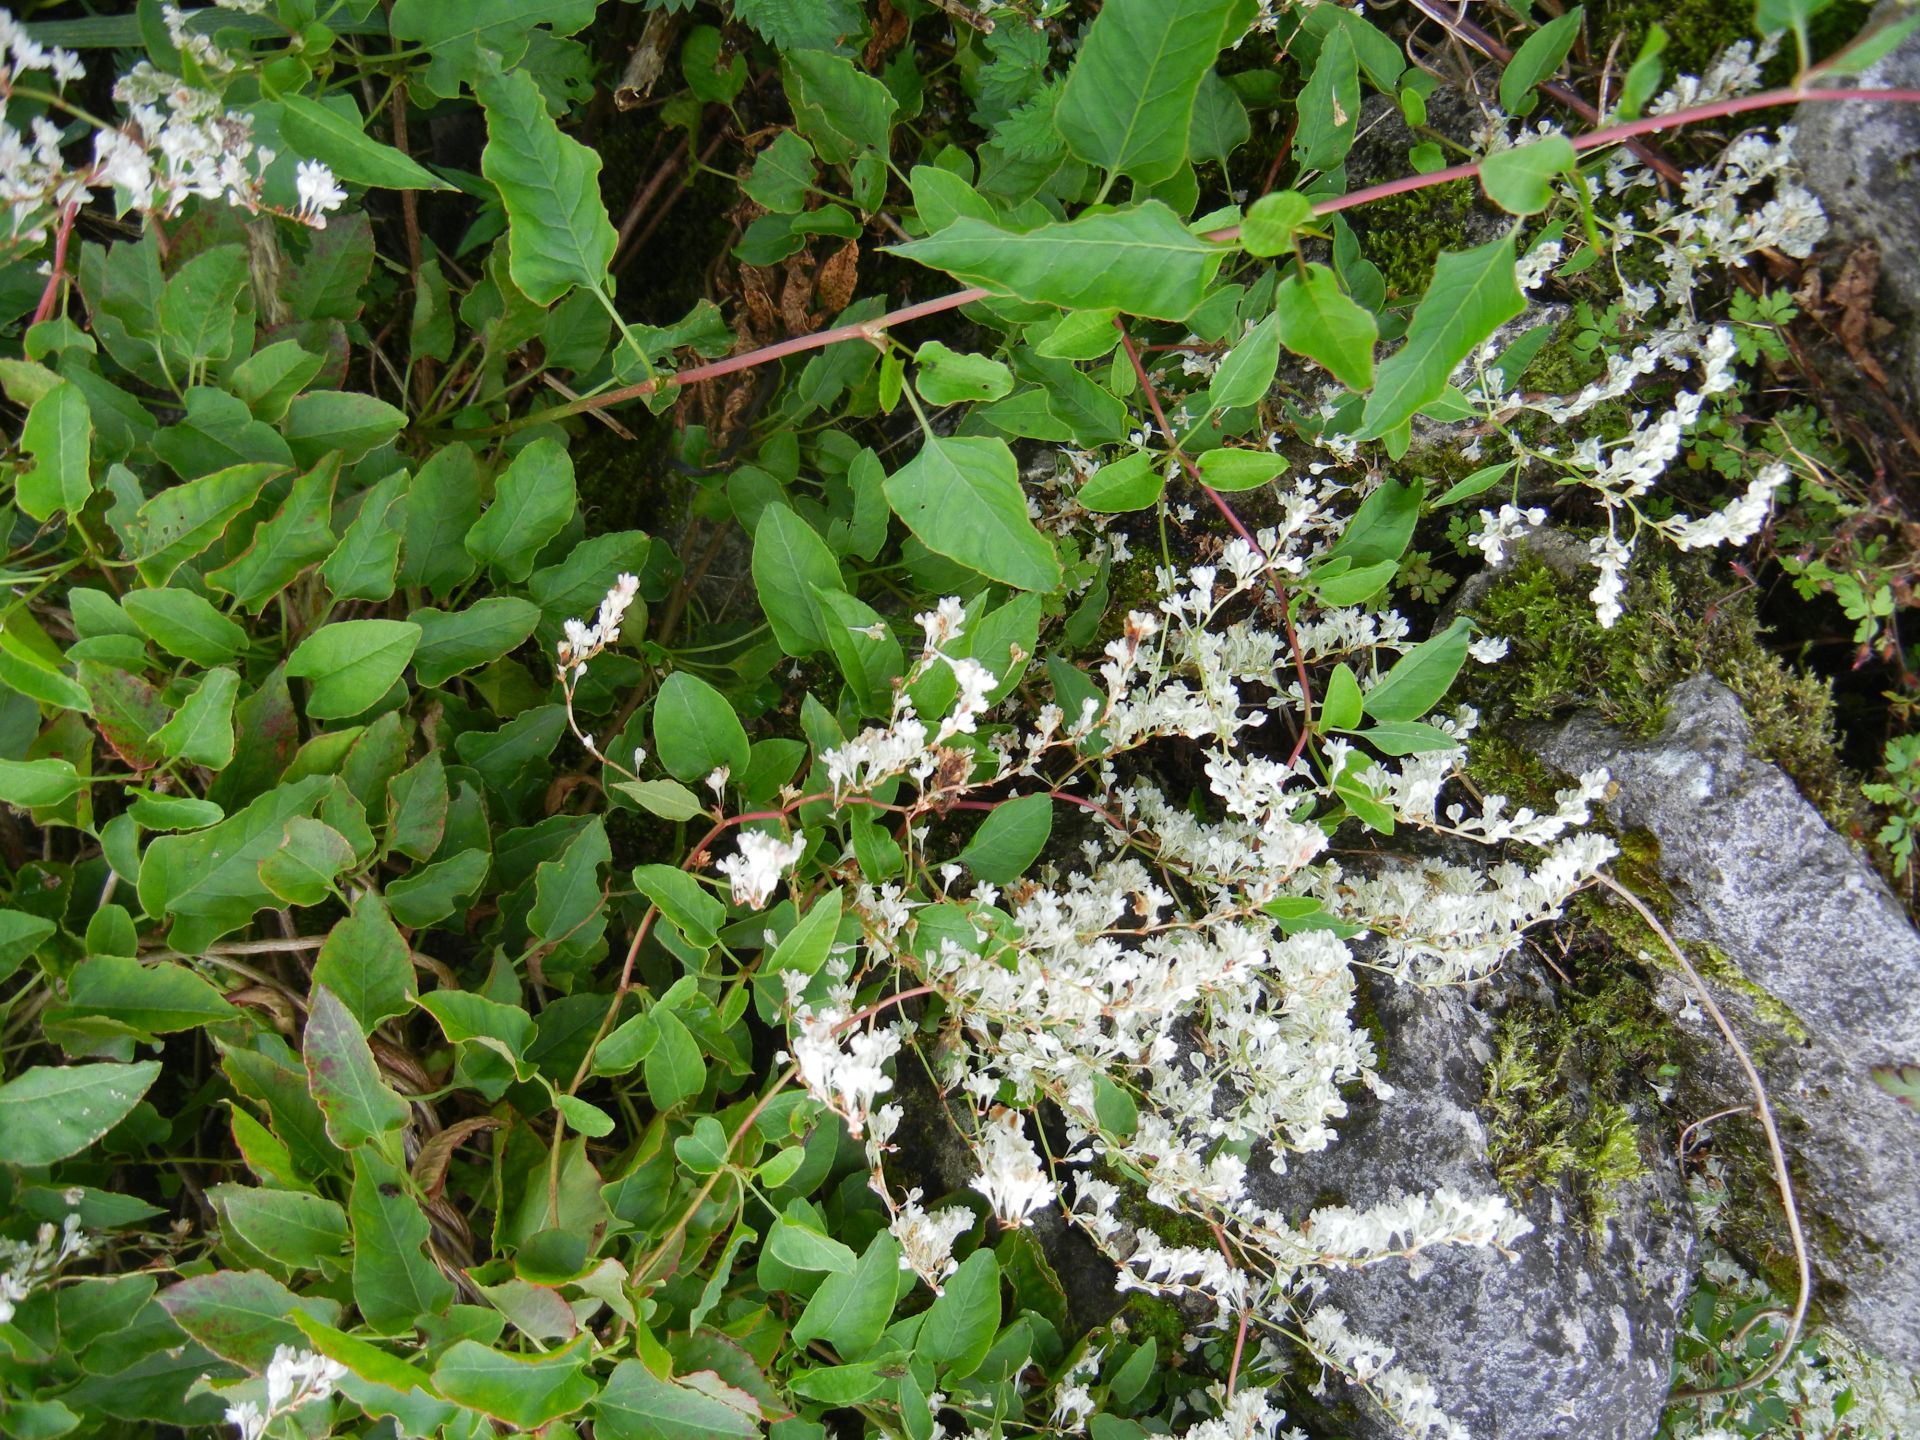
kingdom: Plantae
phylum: Tracheophyta
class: Magnoliopsida
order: Caryophyllales
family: Polygonaceae
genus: Fallopia
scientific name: Fallopia baldschuanica
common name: Russian-vine
